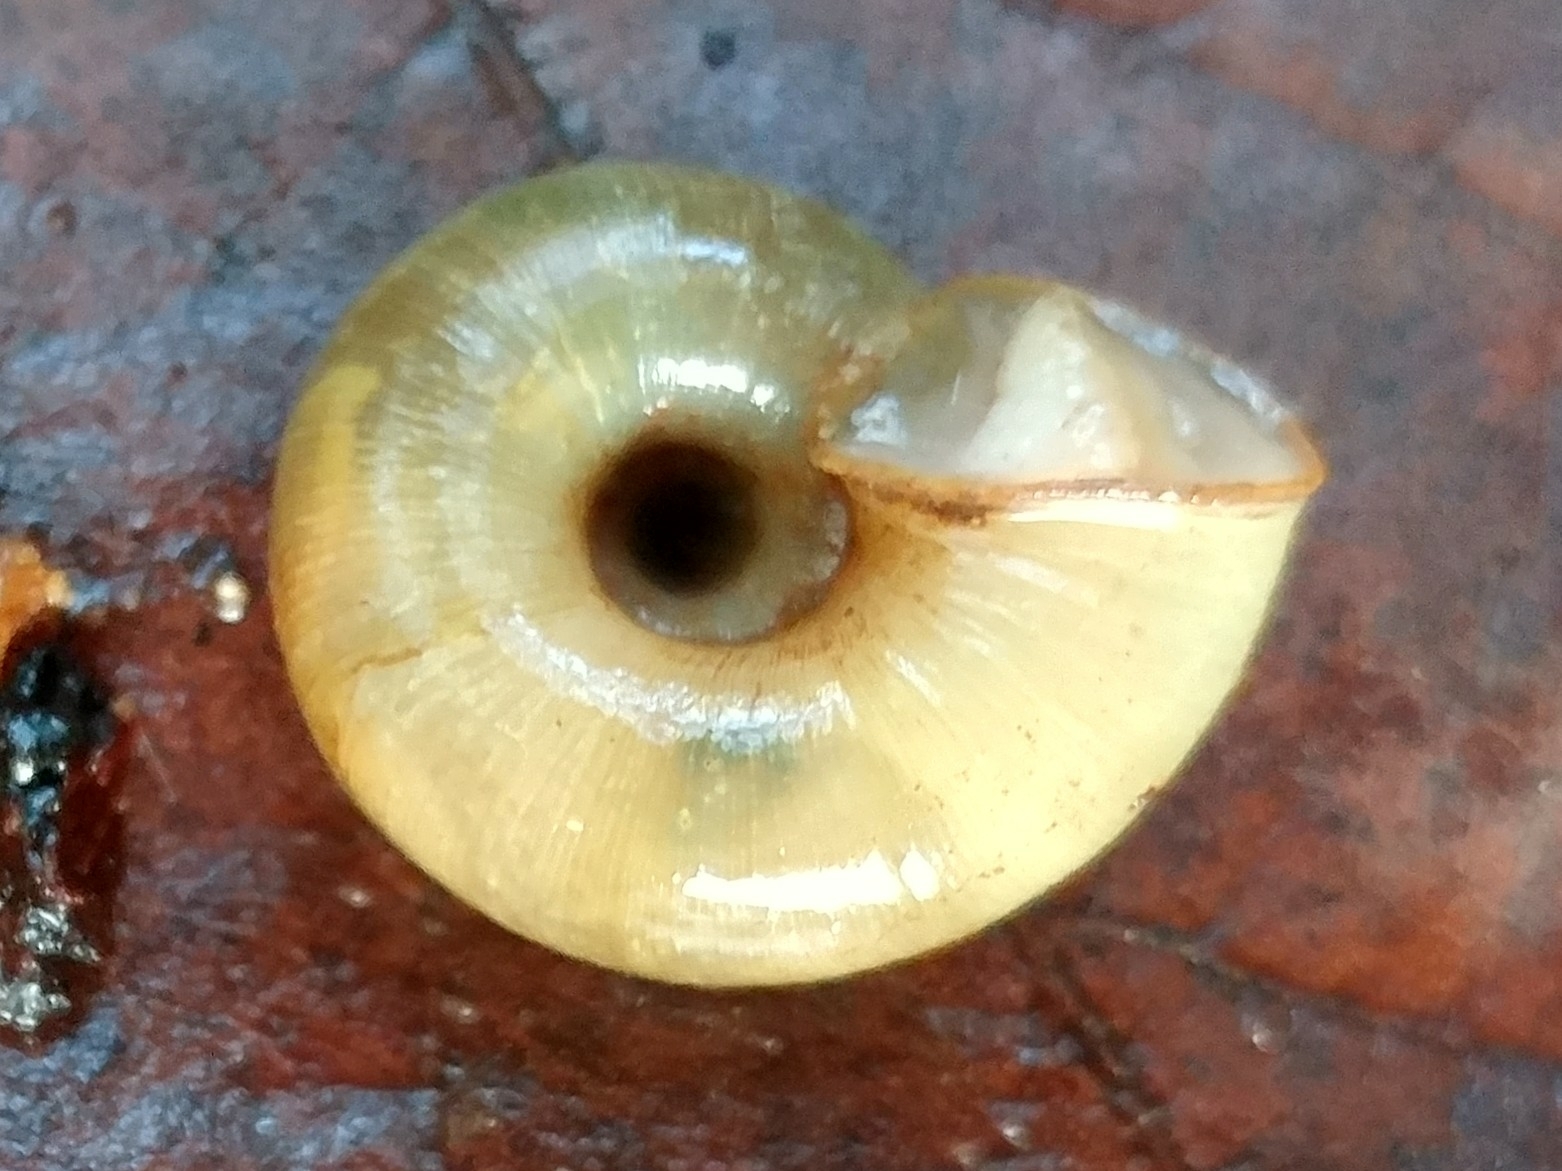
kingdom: Animalia
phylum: Mollusca
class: Gastropoda
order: Stylommatophora
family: Haplotrematidae
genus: Ancotrema
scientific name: Ancotrema sportella
